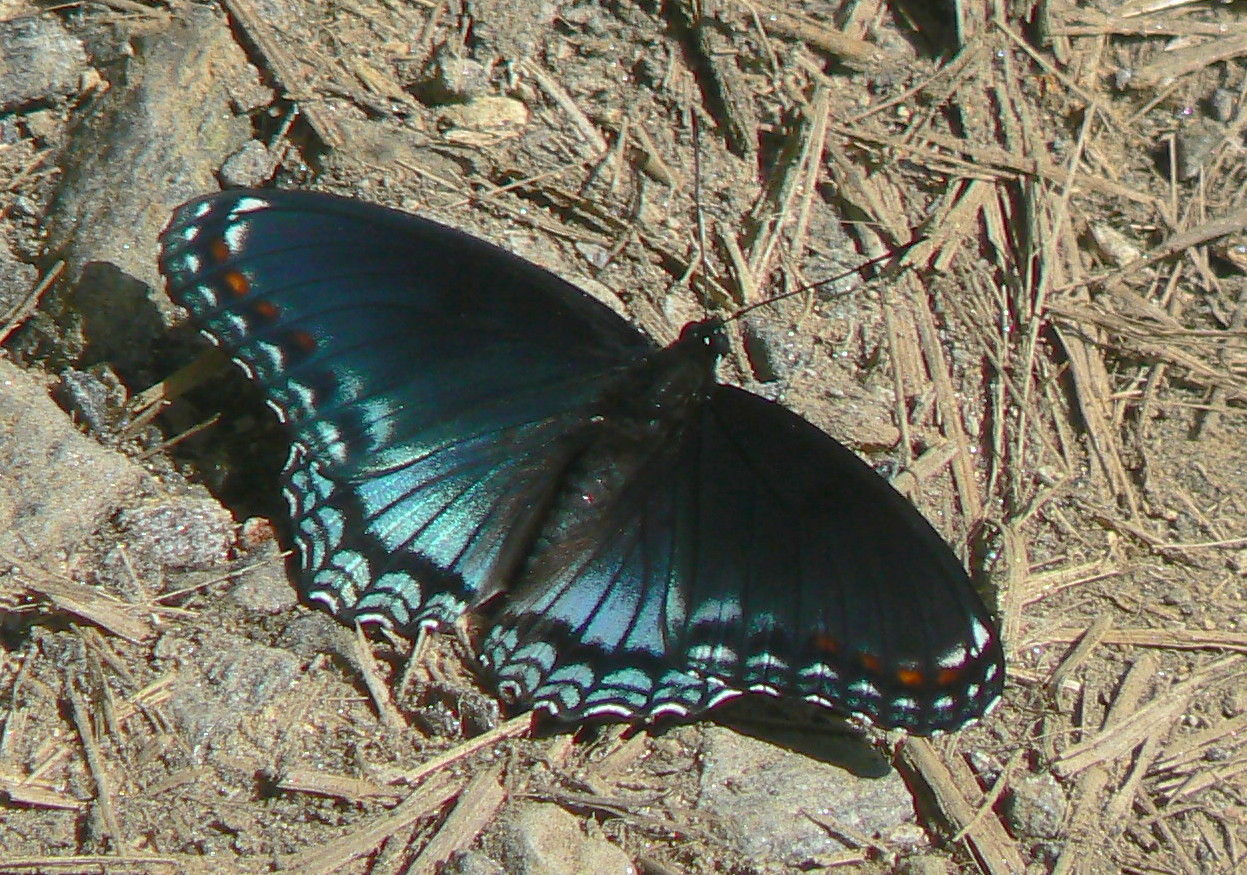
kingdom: Animalia
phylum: Arthropoda
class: Insecta
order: Lepidoptera
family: Nymphalidae
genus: Limenitis
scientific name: Limenitis astyanax
